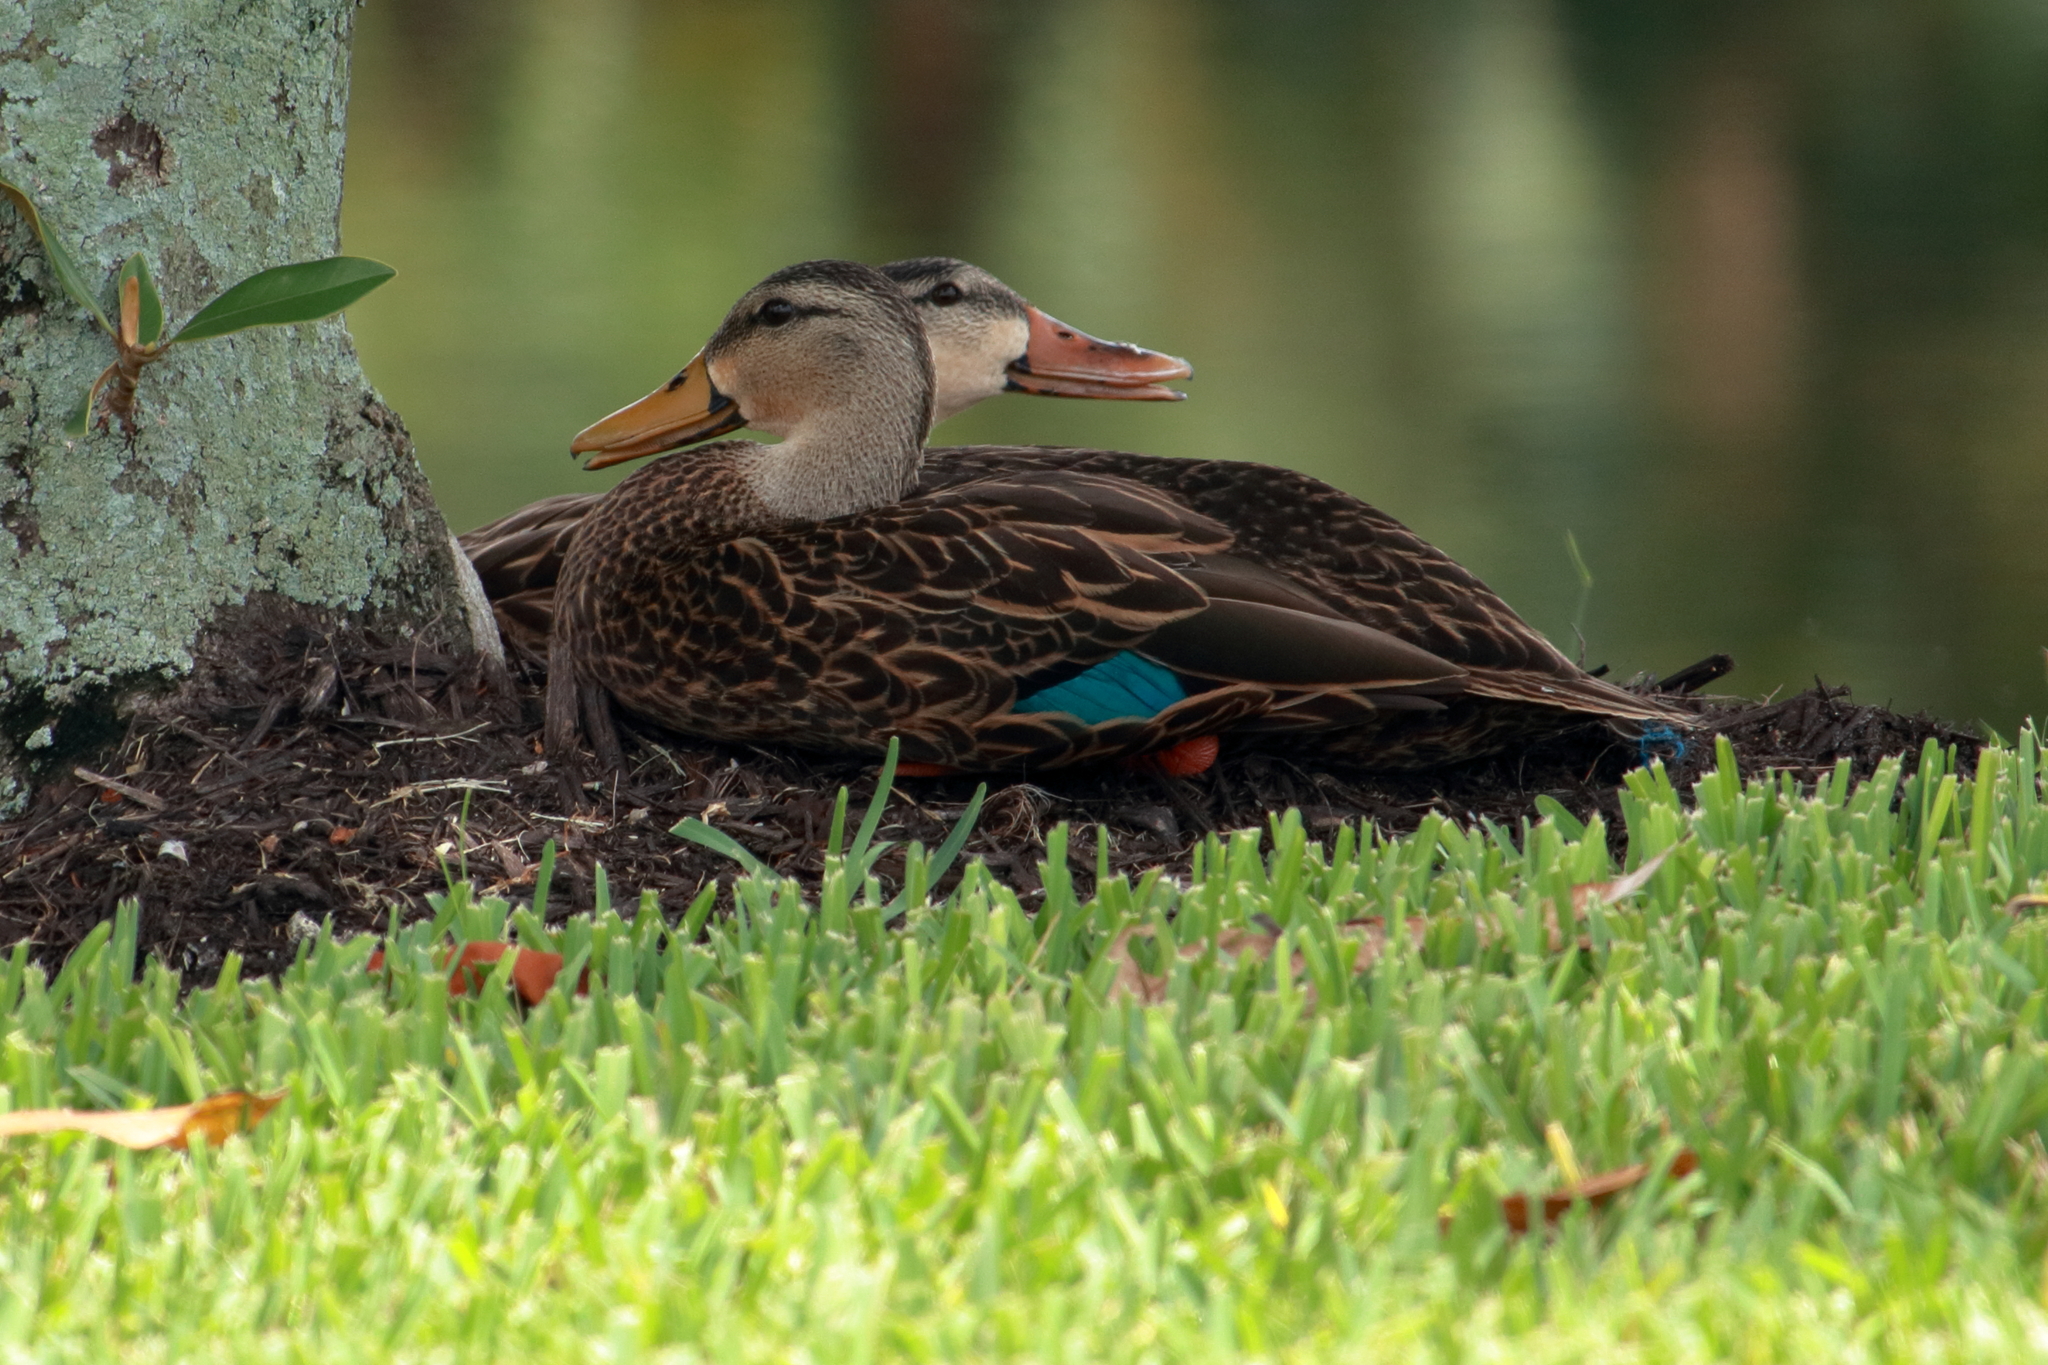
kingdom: Animalia
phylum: Chordata
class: Aves
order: Anseriformes
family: Anatidae
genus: Anas
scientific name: Anas fulvigula
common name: Mottled duck
